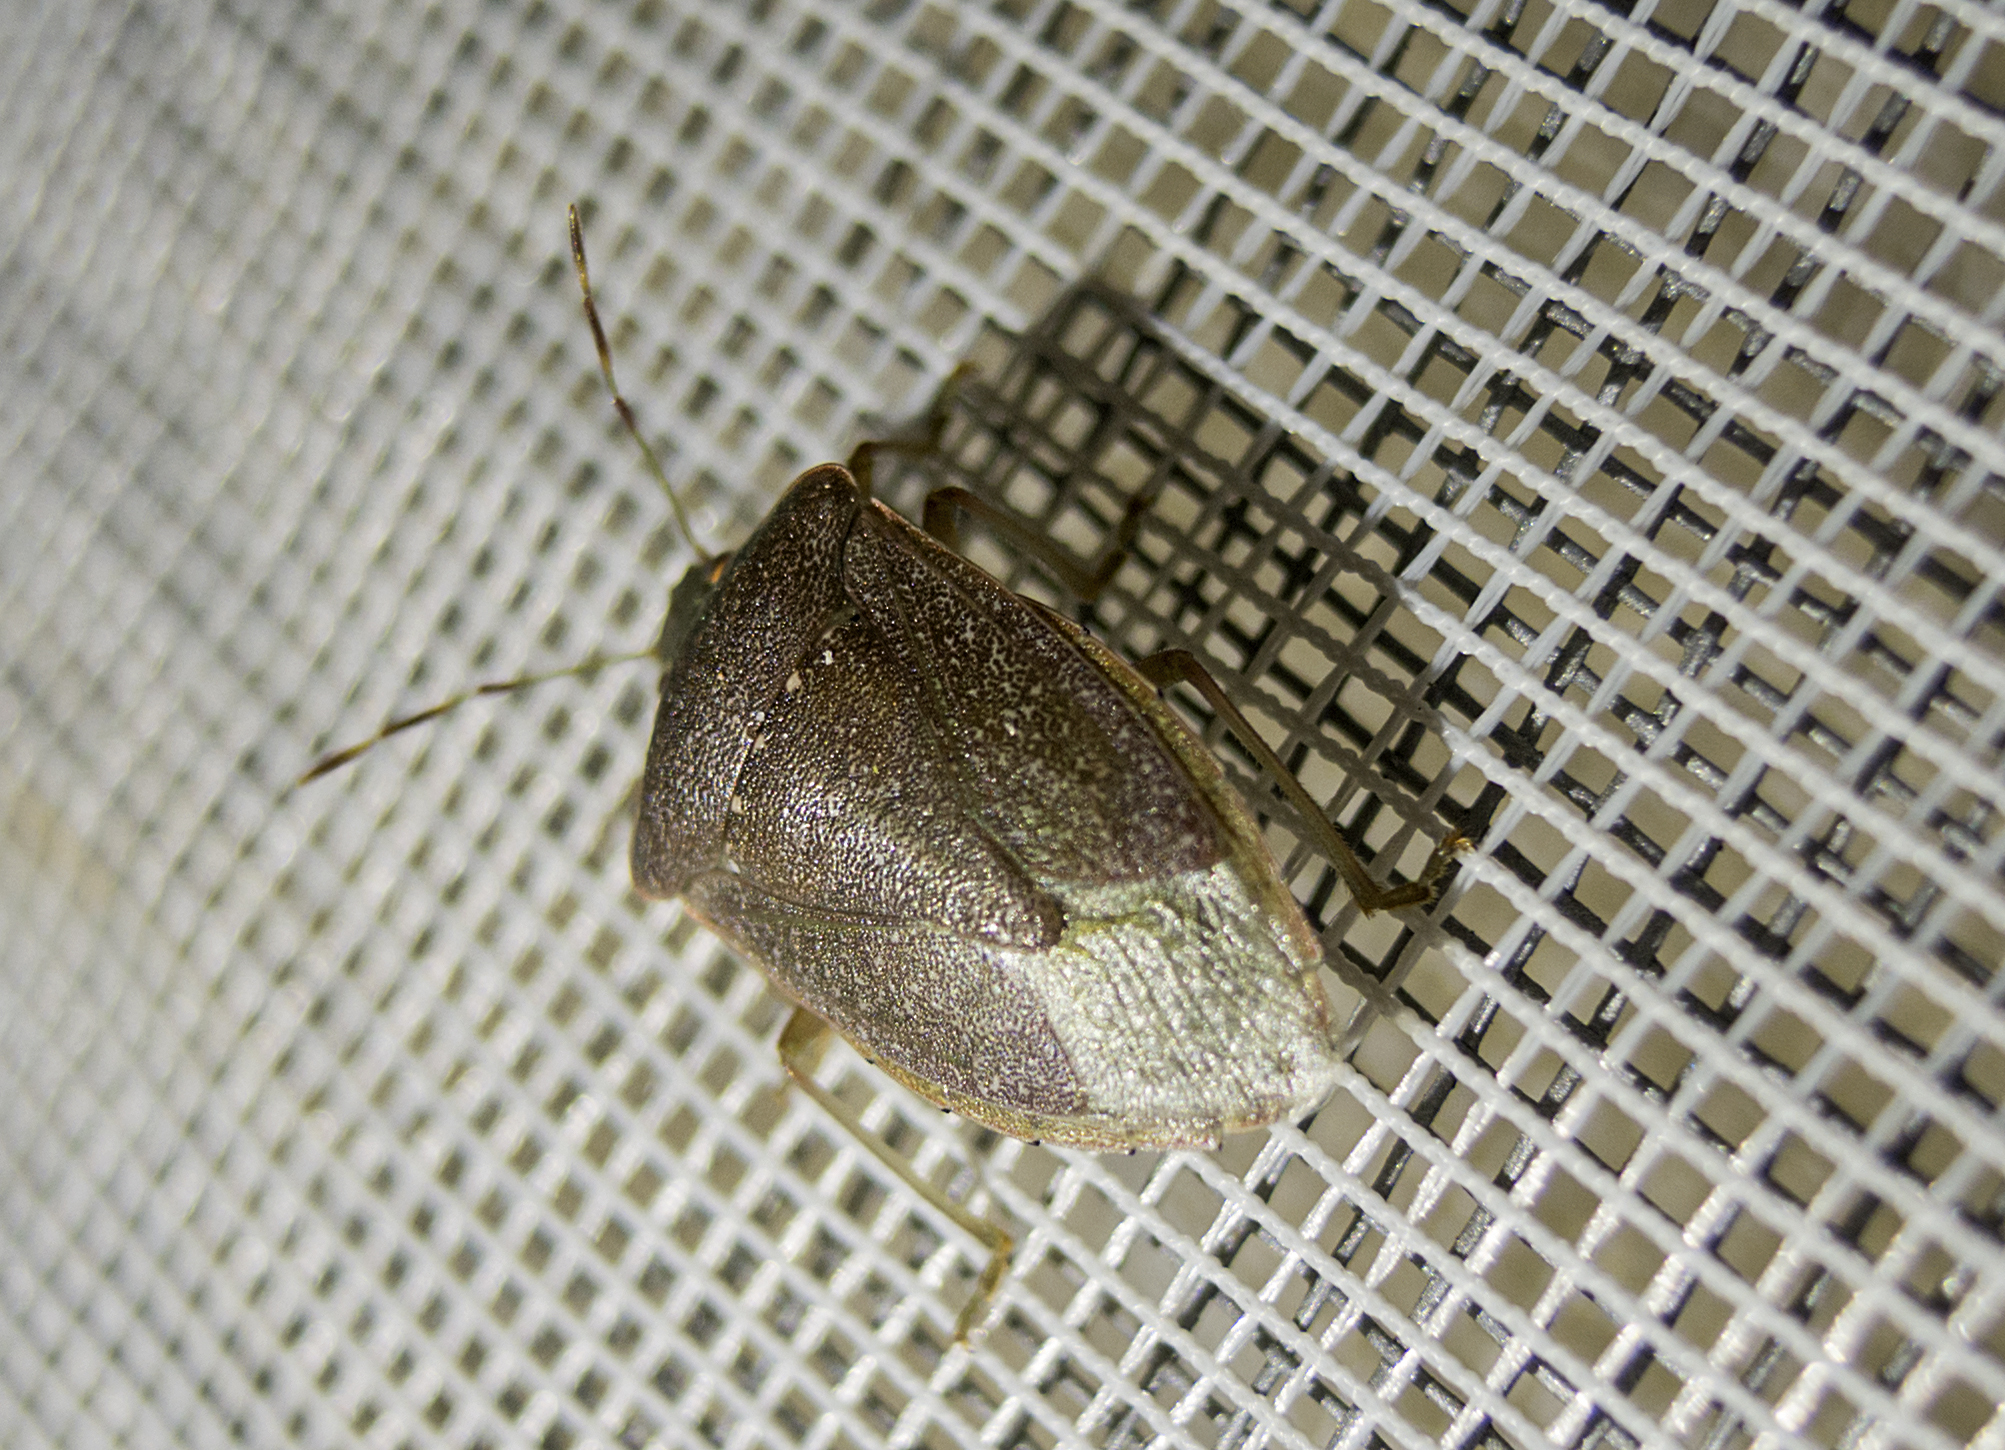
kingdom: Animalia
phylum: Arthropoda
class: Insecta
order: Hemiptera
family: Pentatomidae
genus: Nezara
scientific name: Nezara viridula
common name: Southern green stink bug
